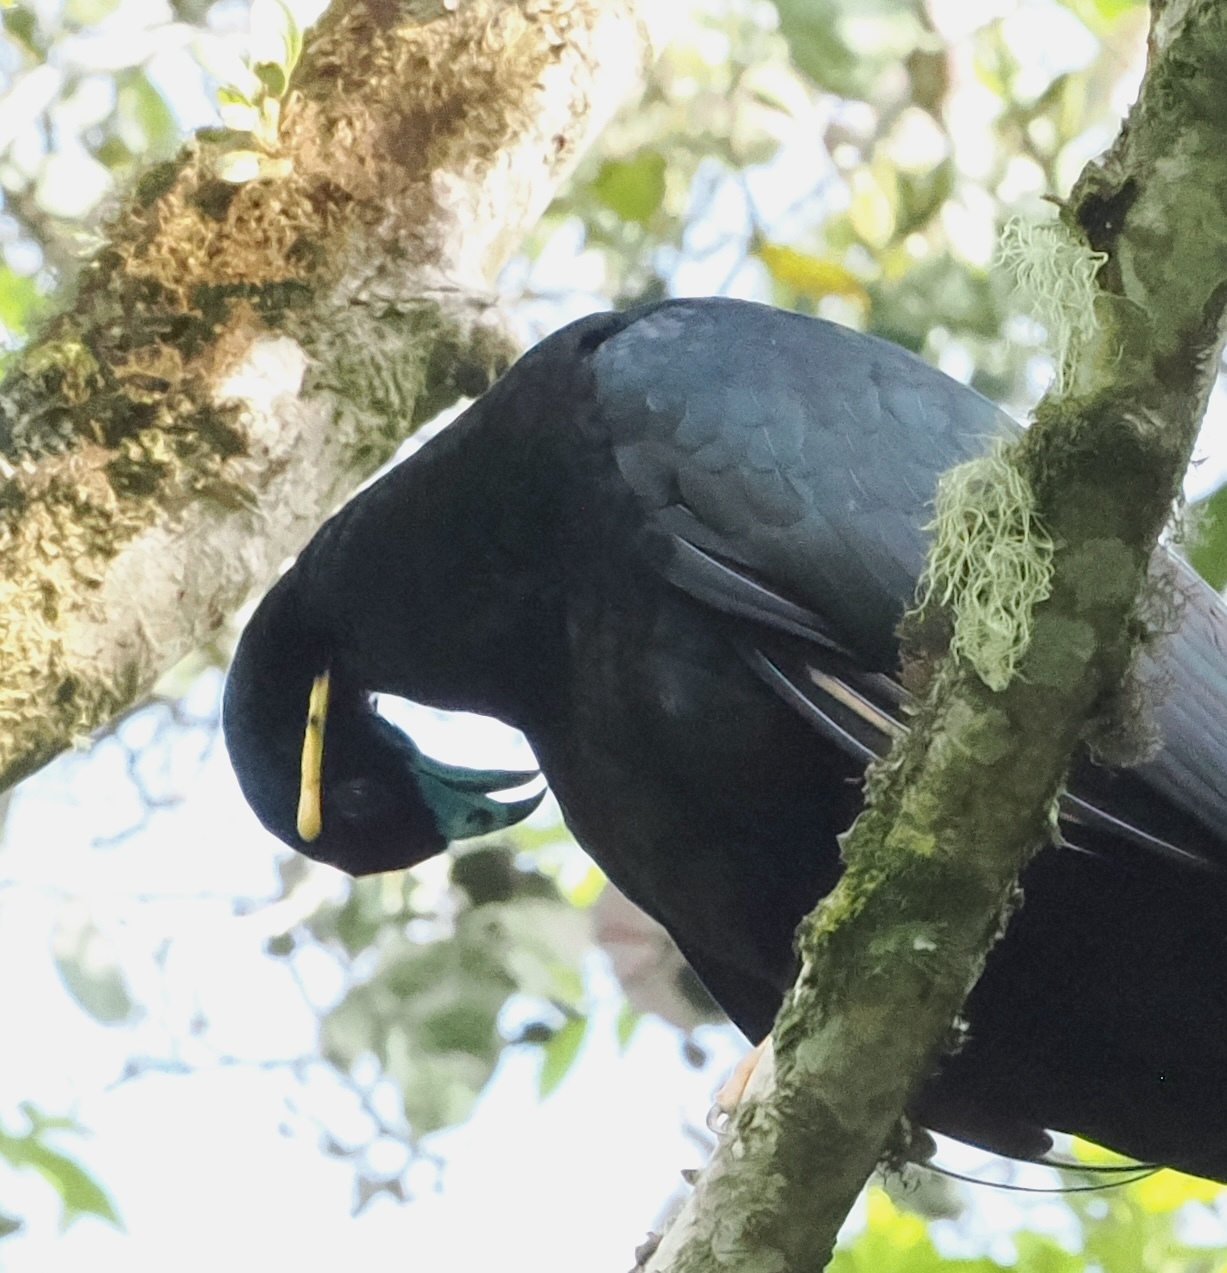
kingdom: Animalia
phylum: Chordata
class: Aves
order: Galliformes
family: Cracidae
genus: Aburria
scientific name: Aburria aburri
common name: Wattled guan
